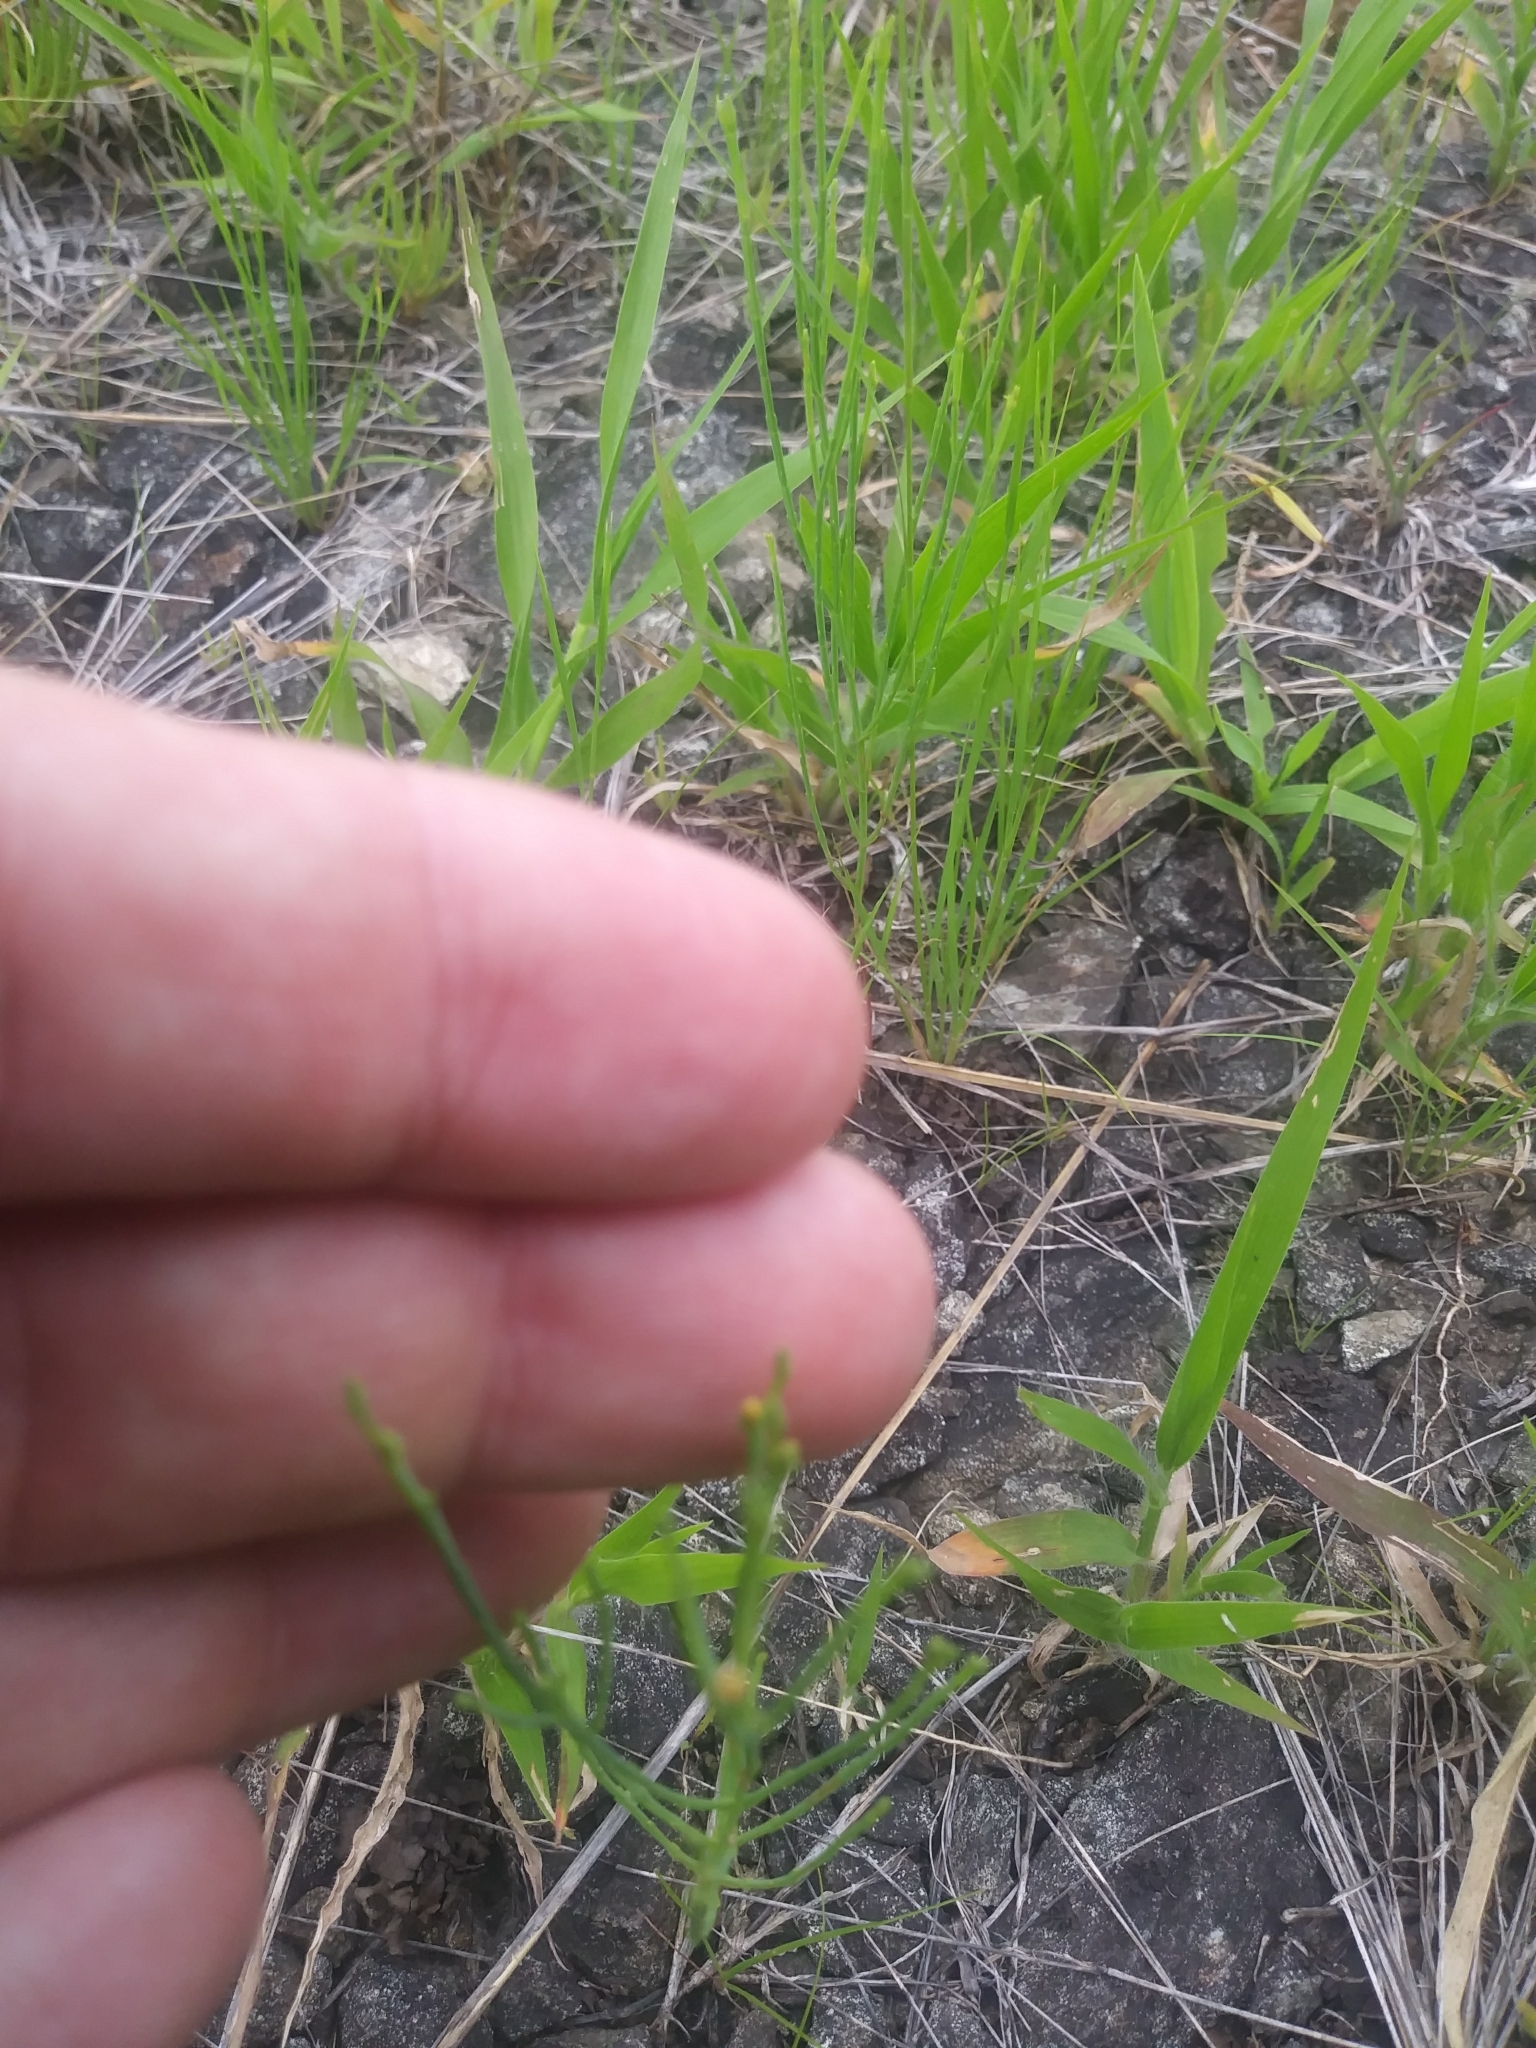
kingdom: Plantae
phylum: Tracheophyta
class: Magnoliopsida
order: Malpighiales
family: Hypericaceae
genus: Hypericum
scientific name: Hypericum gentianoides
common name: Gentian-leaved st. john's-wort
